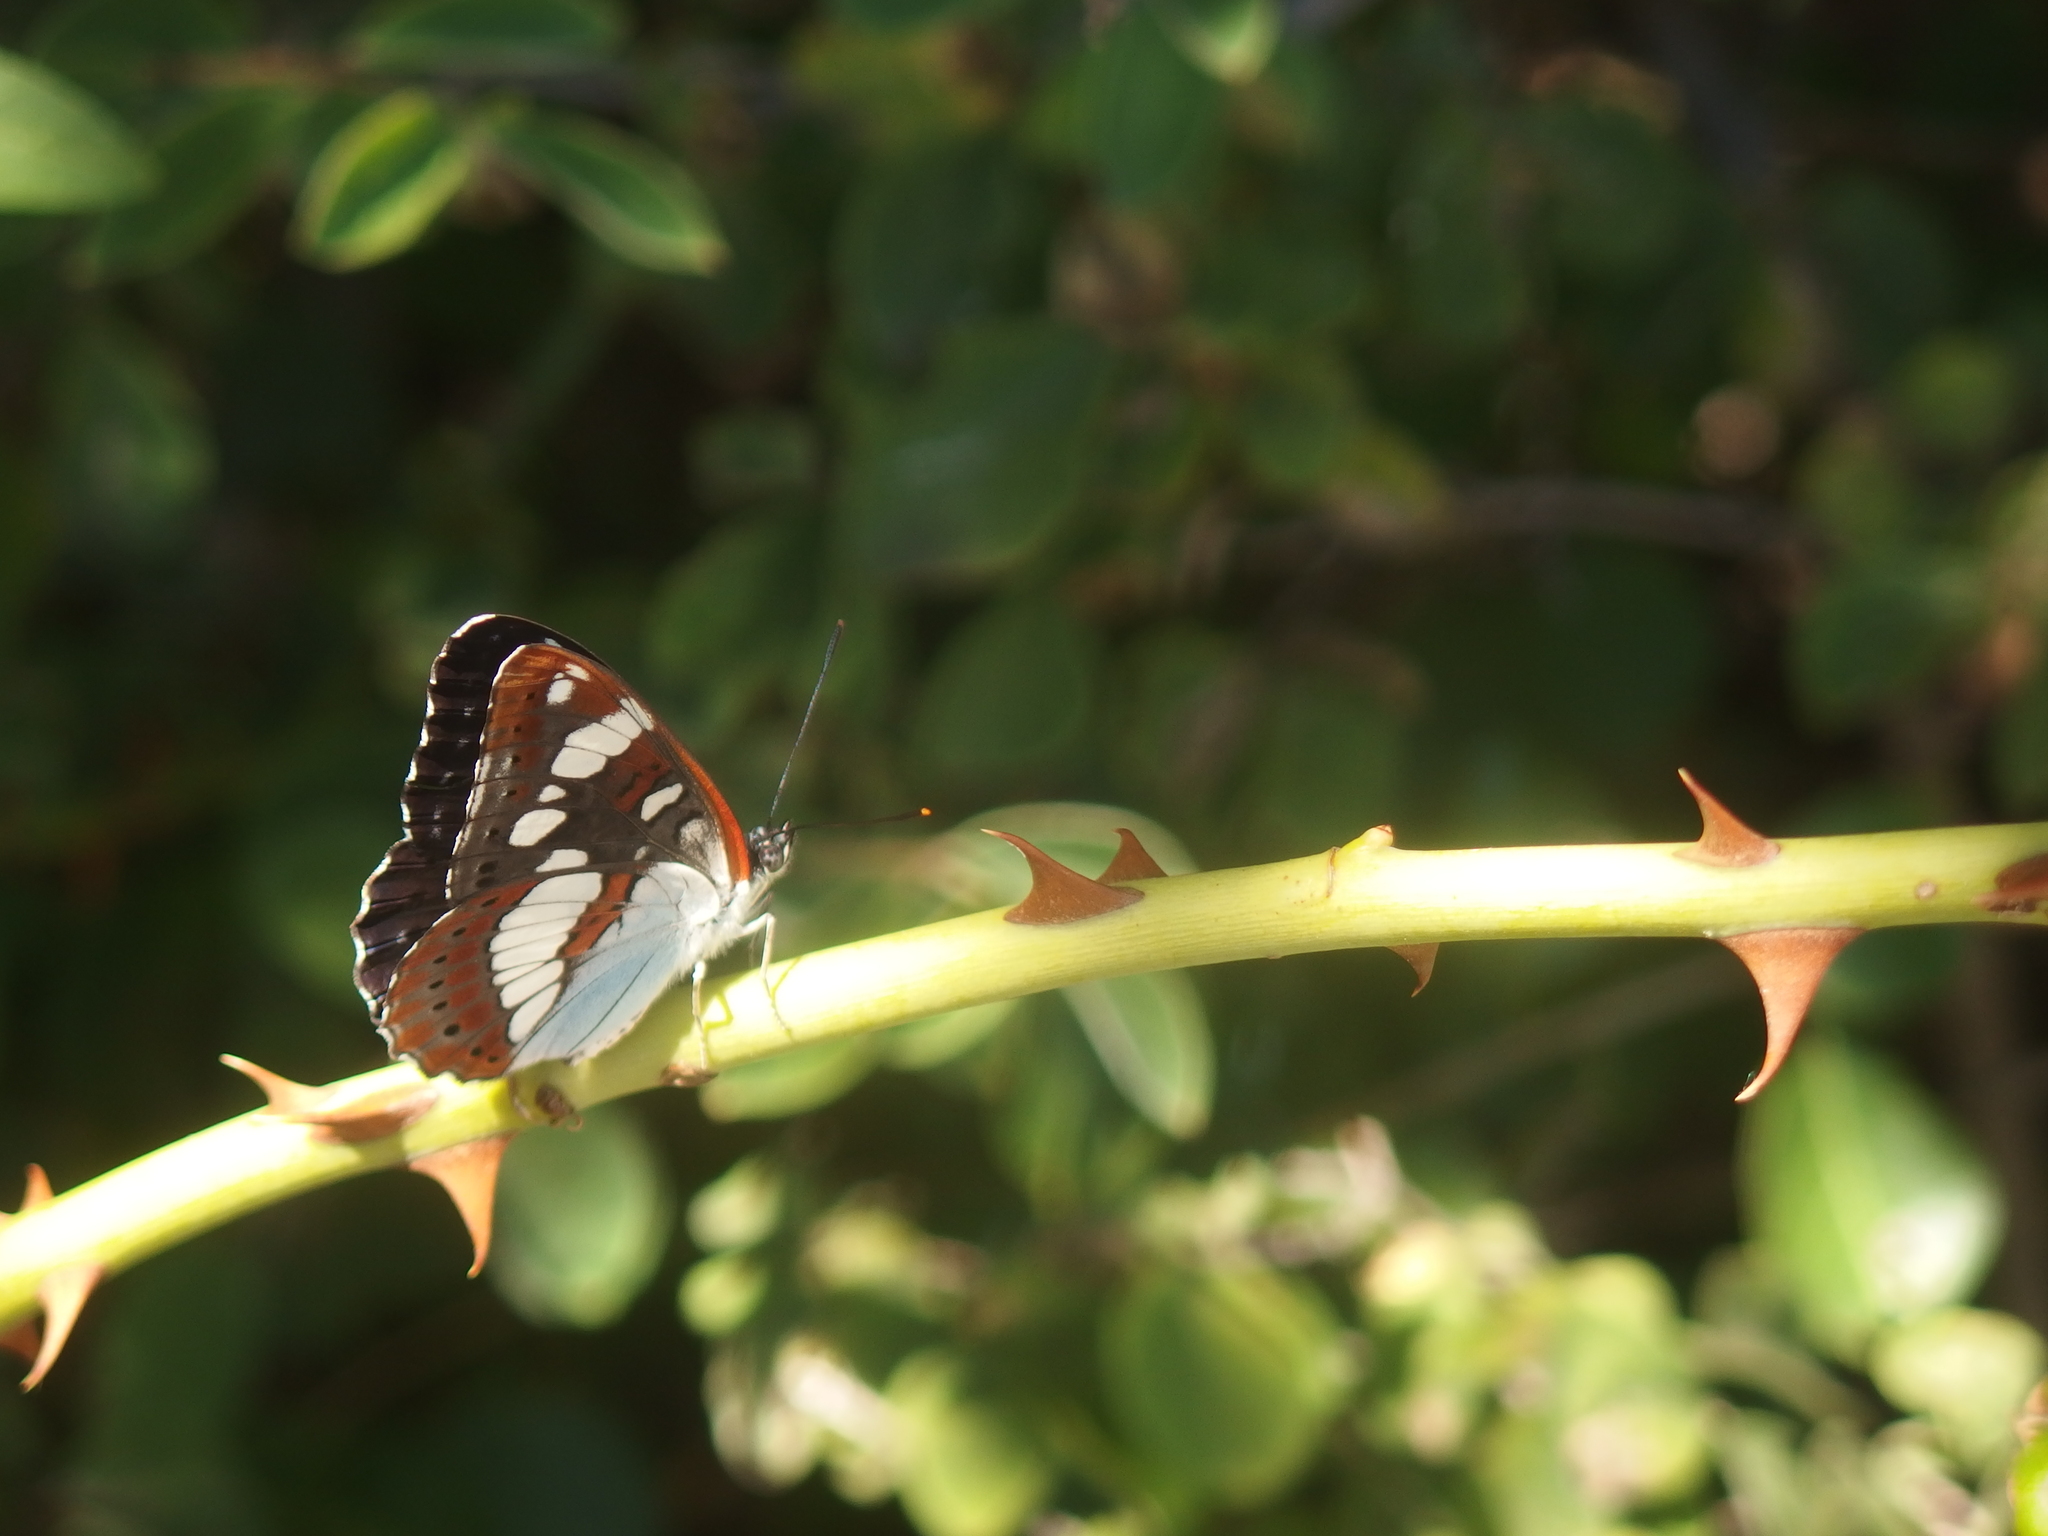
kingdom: Animalia
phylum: Arthropoda
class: Insecta
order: Lepidoptera
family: Nymphalidae
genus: Limenitis
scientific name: Limenitis reducta
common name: Southern white admiral
